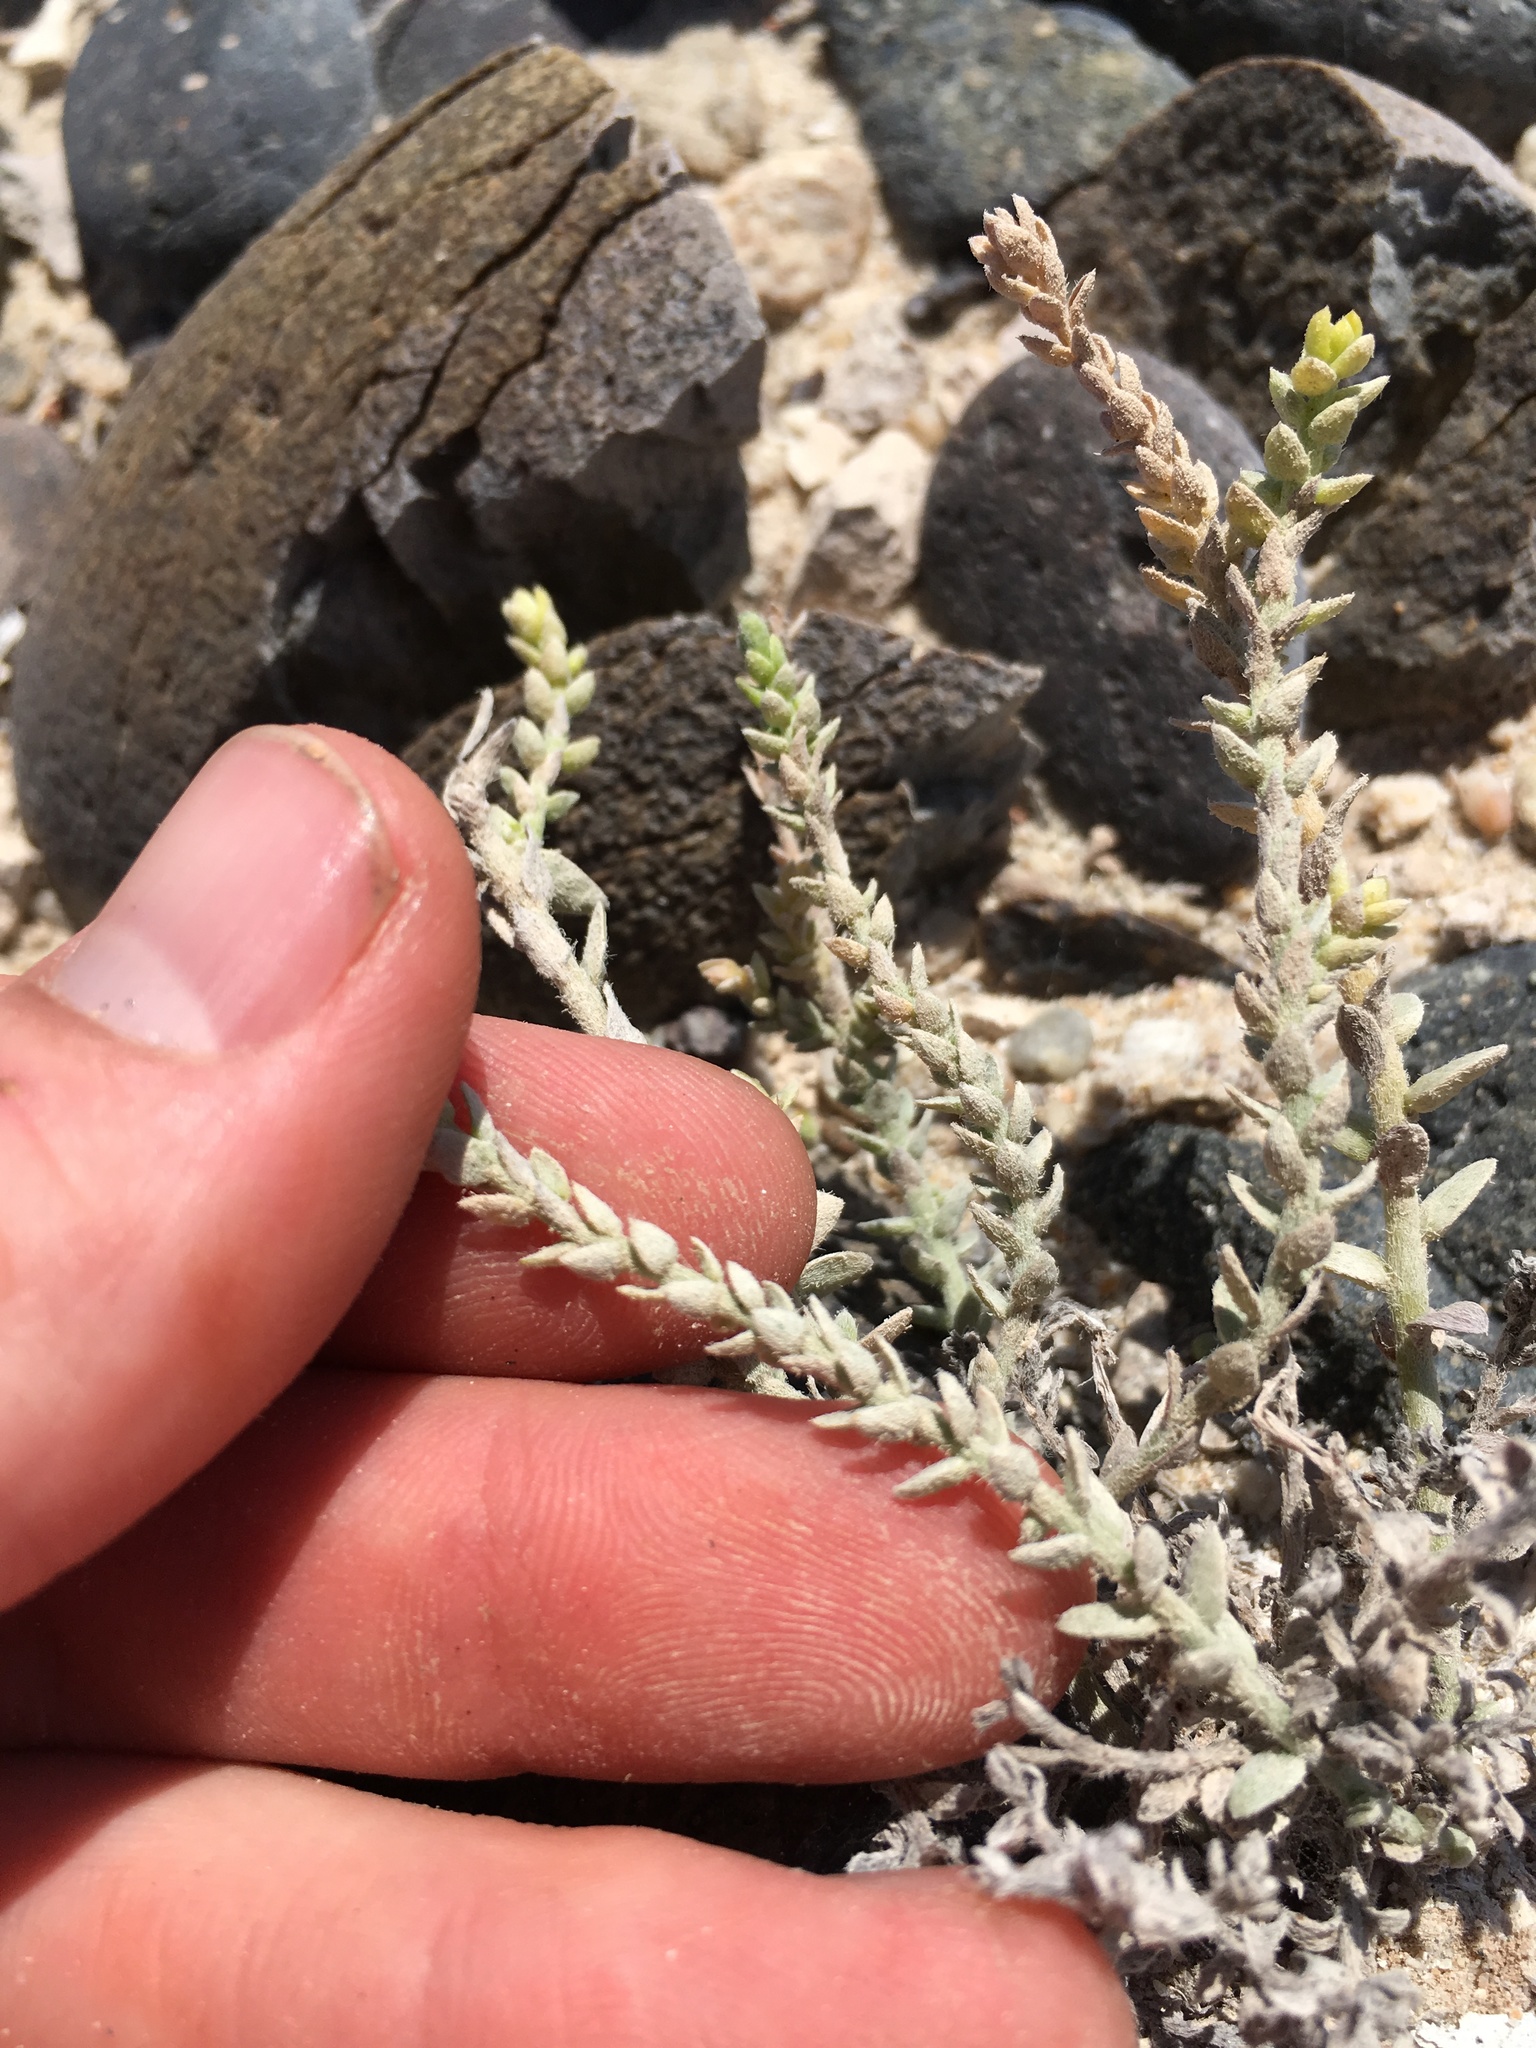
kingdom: Plantae
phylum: Tracheophyta
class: Magnoliopsida
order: Solanales
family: Convolvulaceae
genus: Cressa
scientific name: Cressa truxillensis
